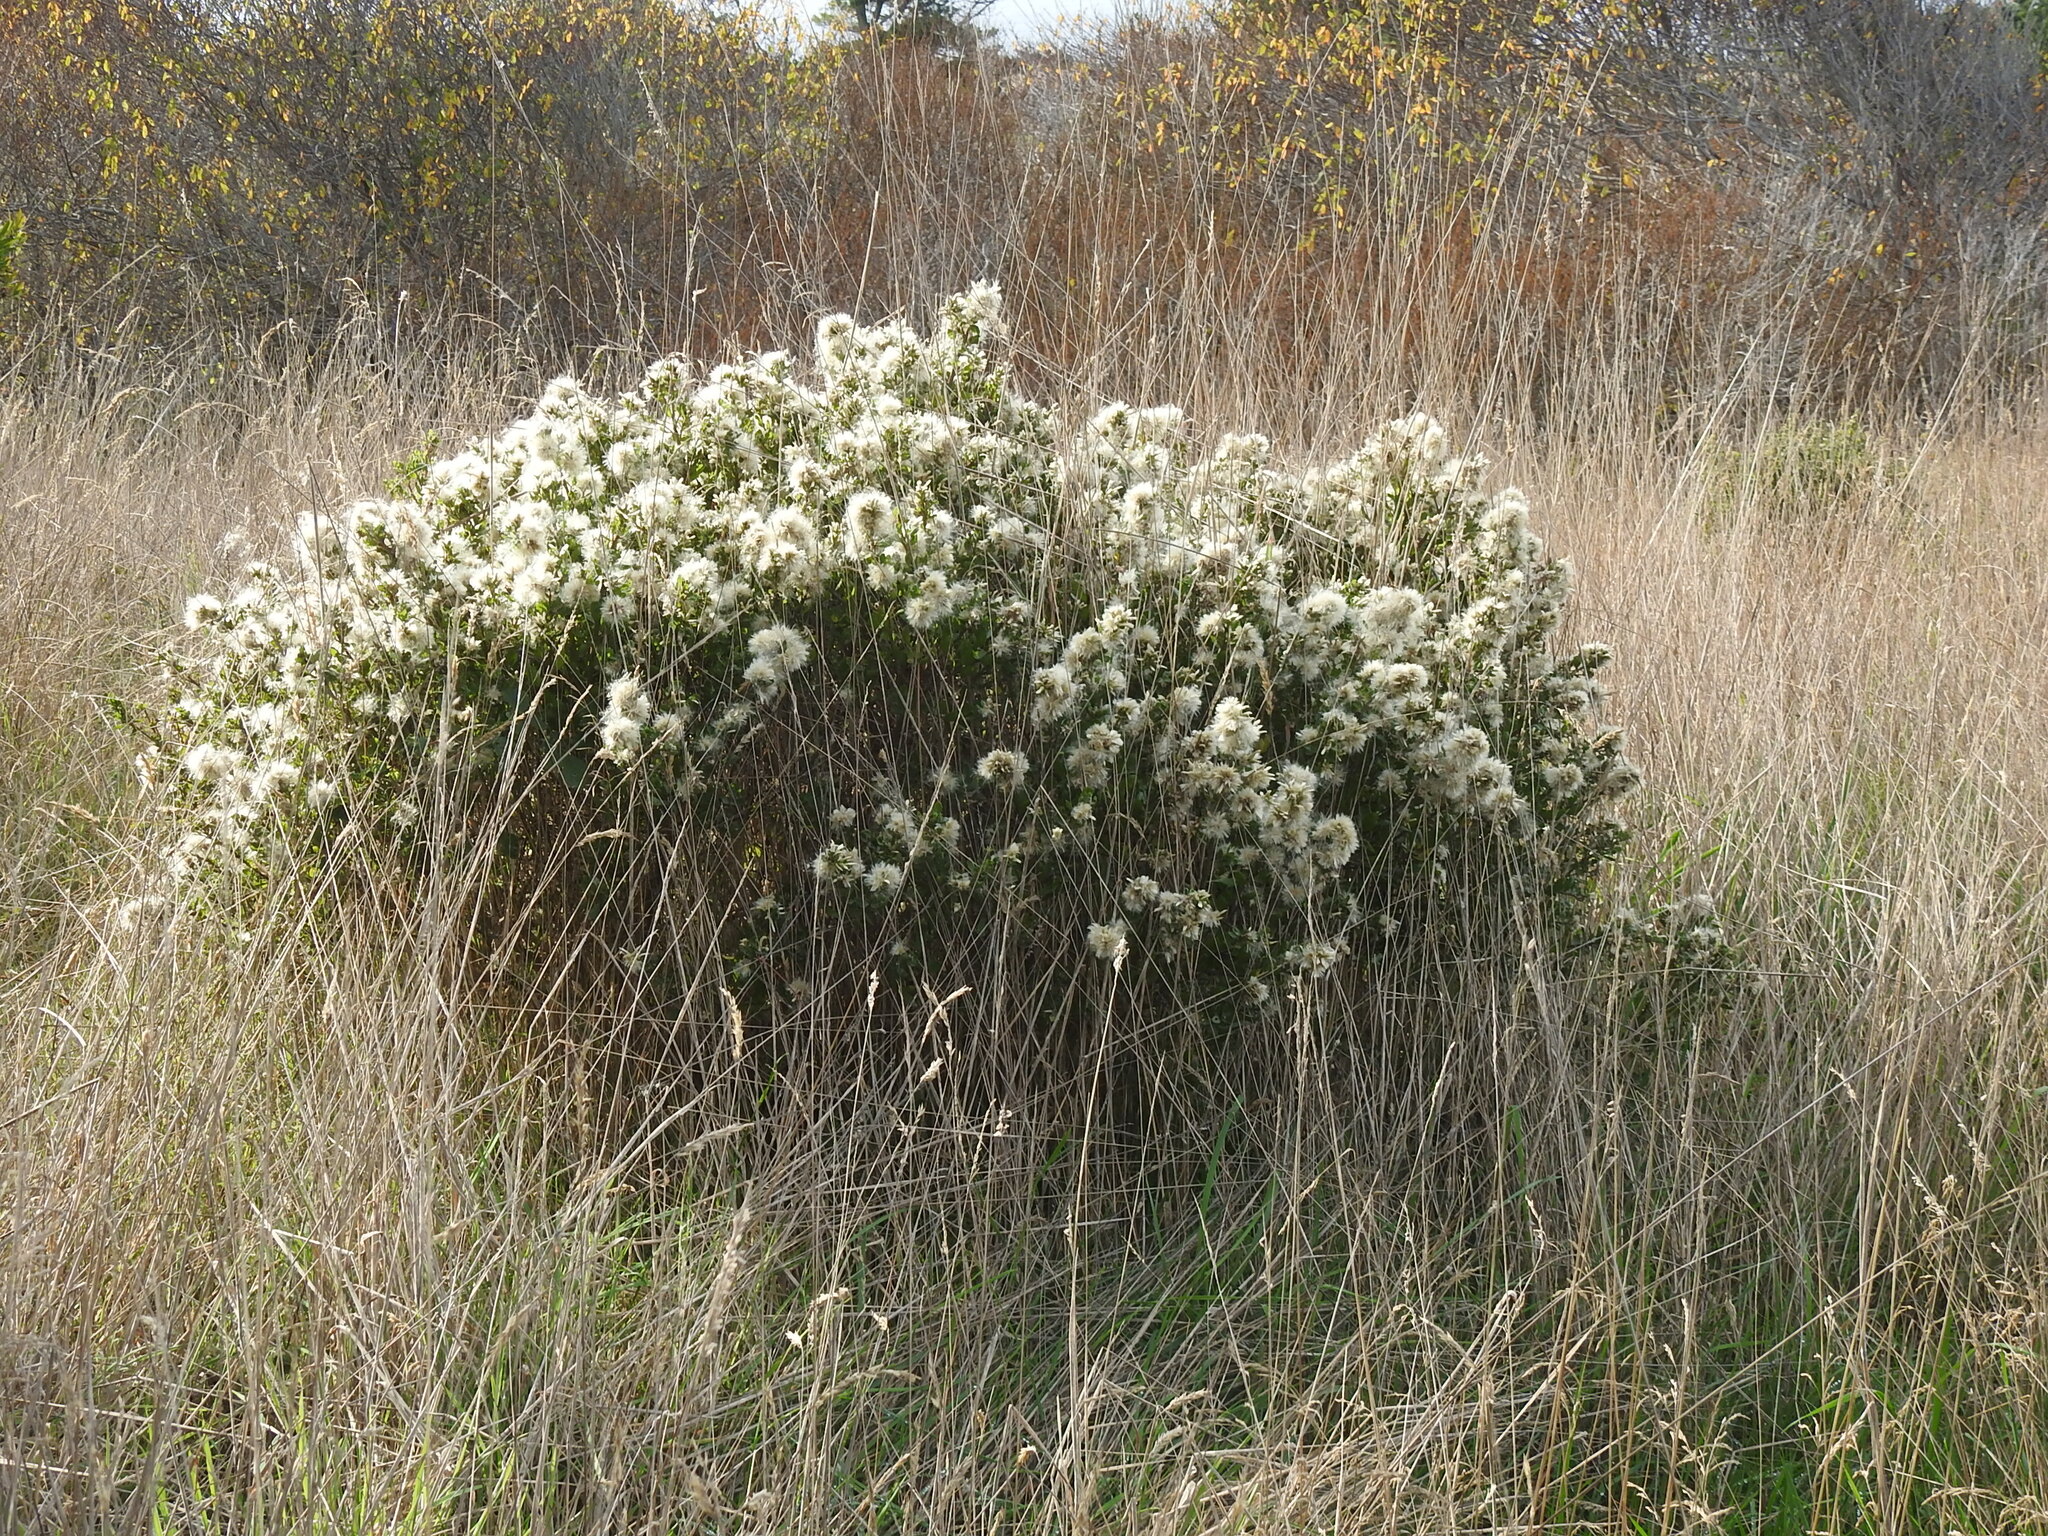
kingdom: Plantae
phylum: Tracheophyta
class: Magnoliopsida
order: Asterales
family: Asteraceae
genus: Baccharis
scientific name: Baccharis pilularis
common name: Coyotebrush
